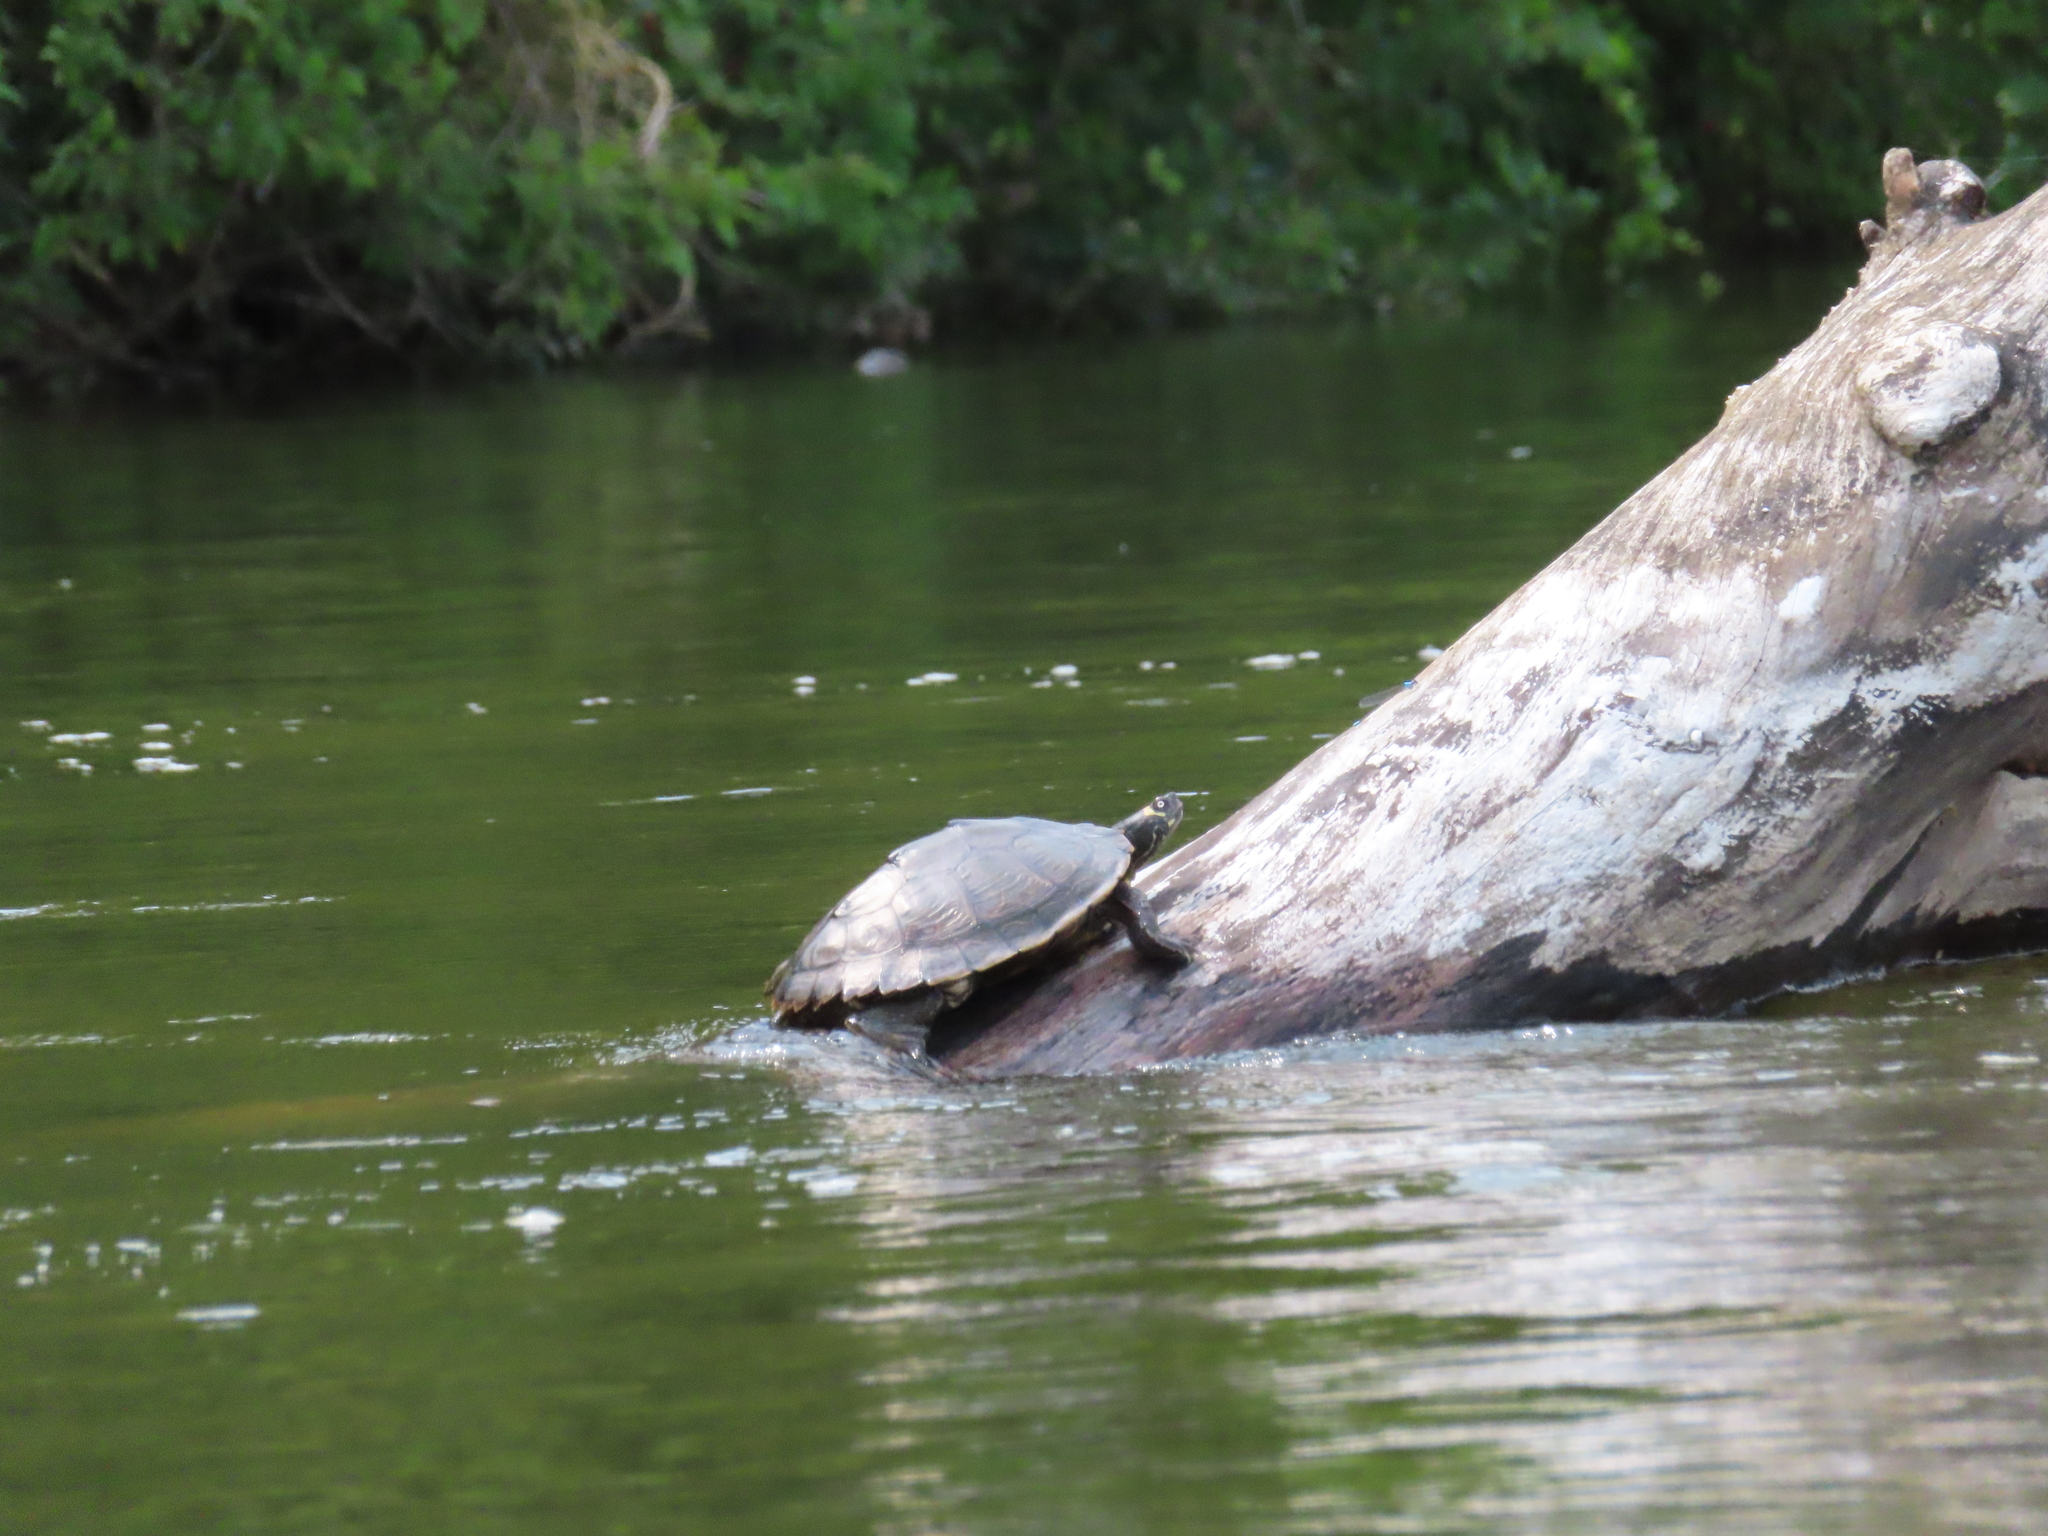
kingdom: Animalia
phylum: Chordata
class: Testudines
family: Emydidae
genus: Graptemys
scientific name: Graptemys ouachitensis
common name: Ouachita map turtle
